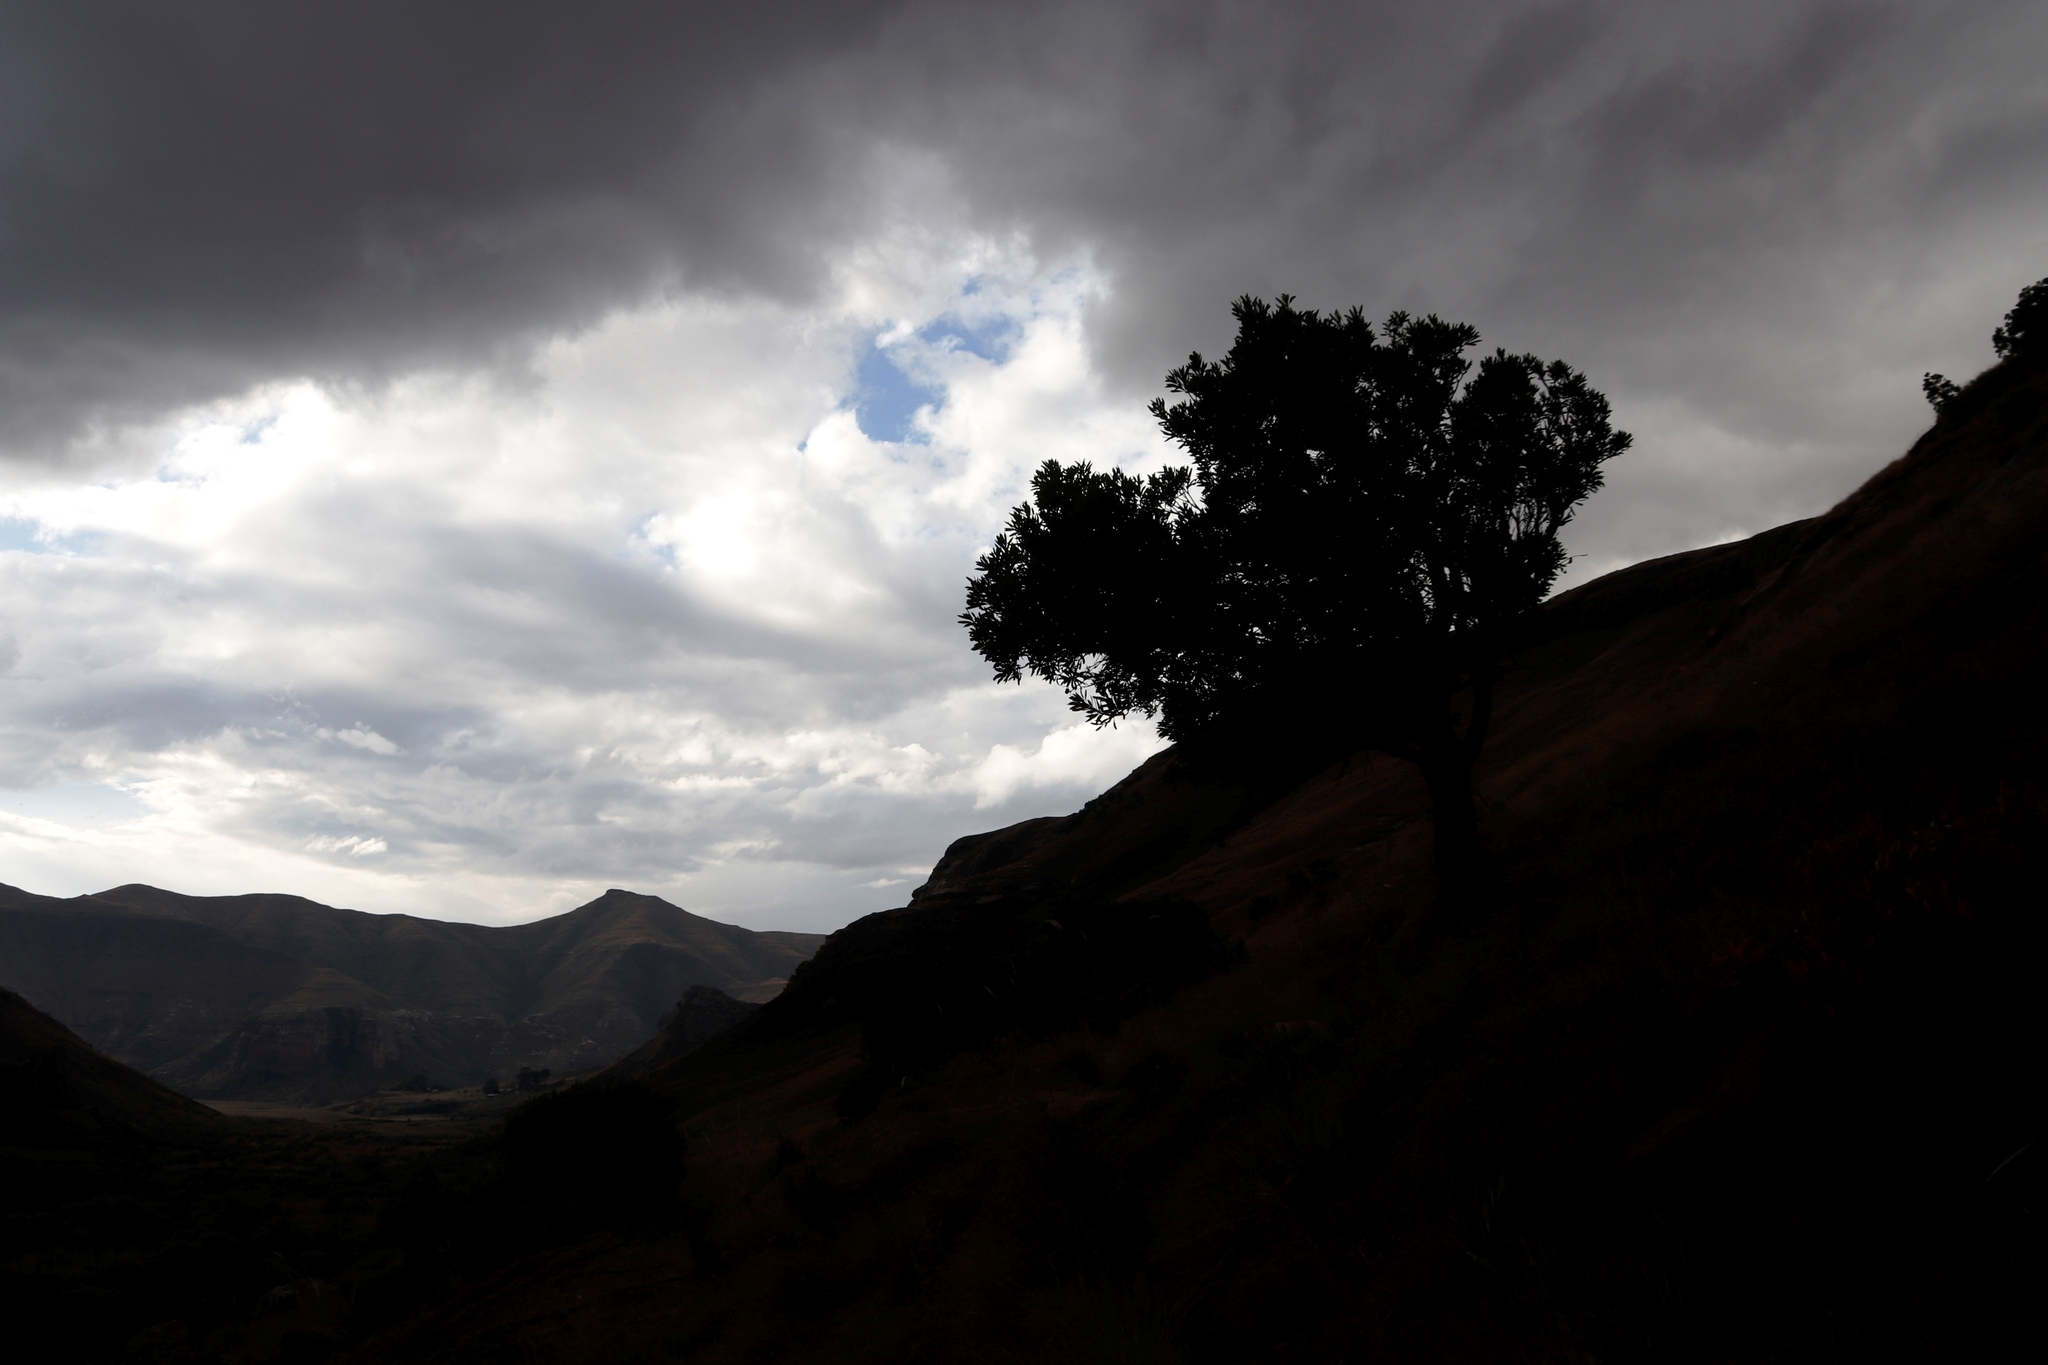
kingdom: Plantae
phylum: Tracheophyta
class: Magnoliopsida
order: Proteales
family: Proteaceae
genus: Protea
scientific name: Protea caffra
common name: Common sugarbush
